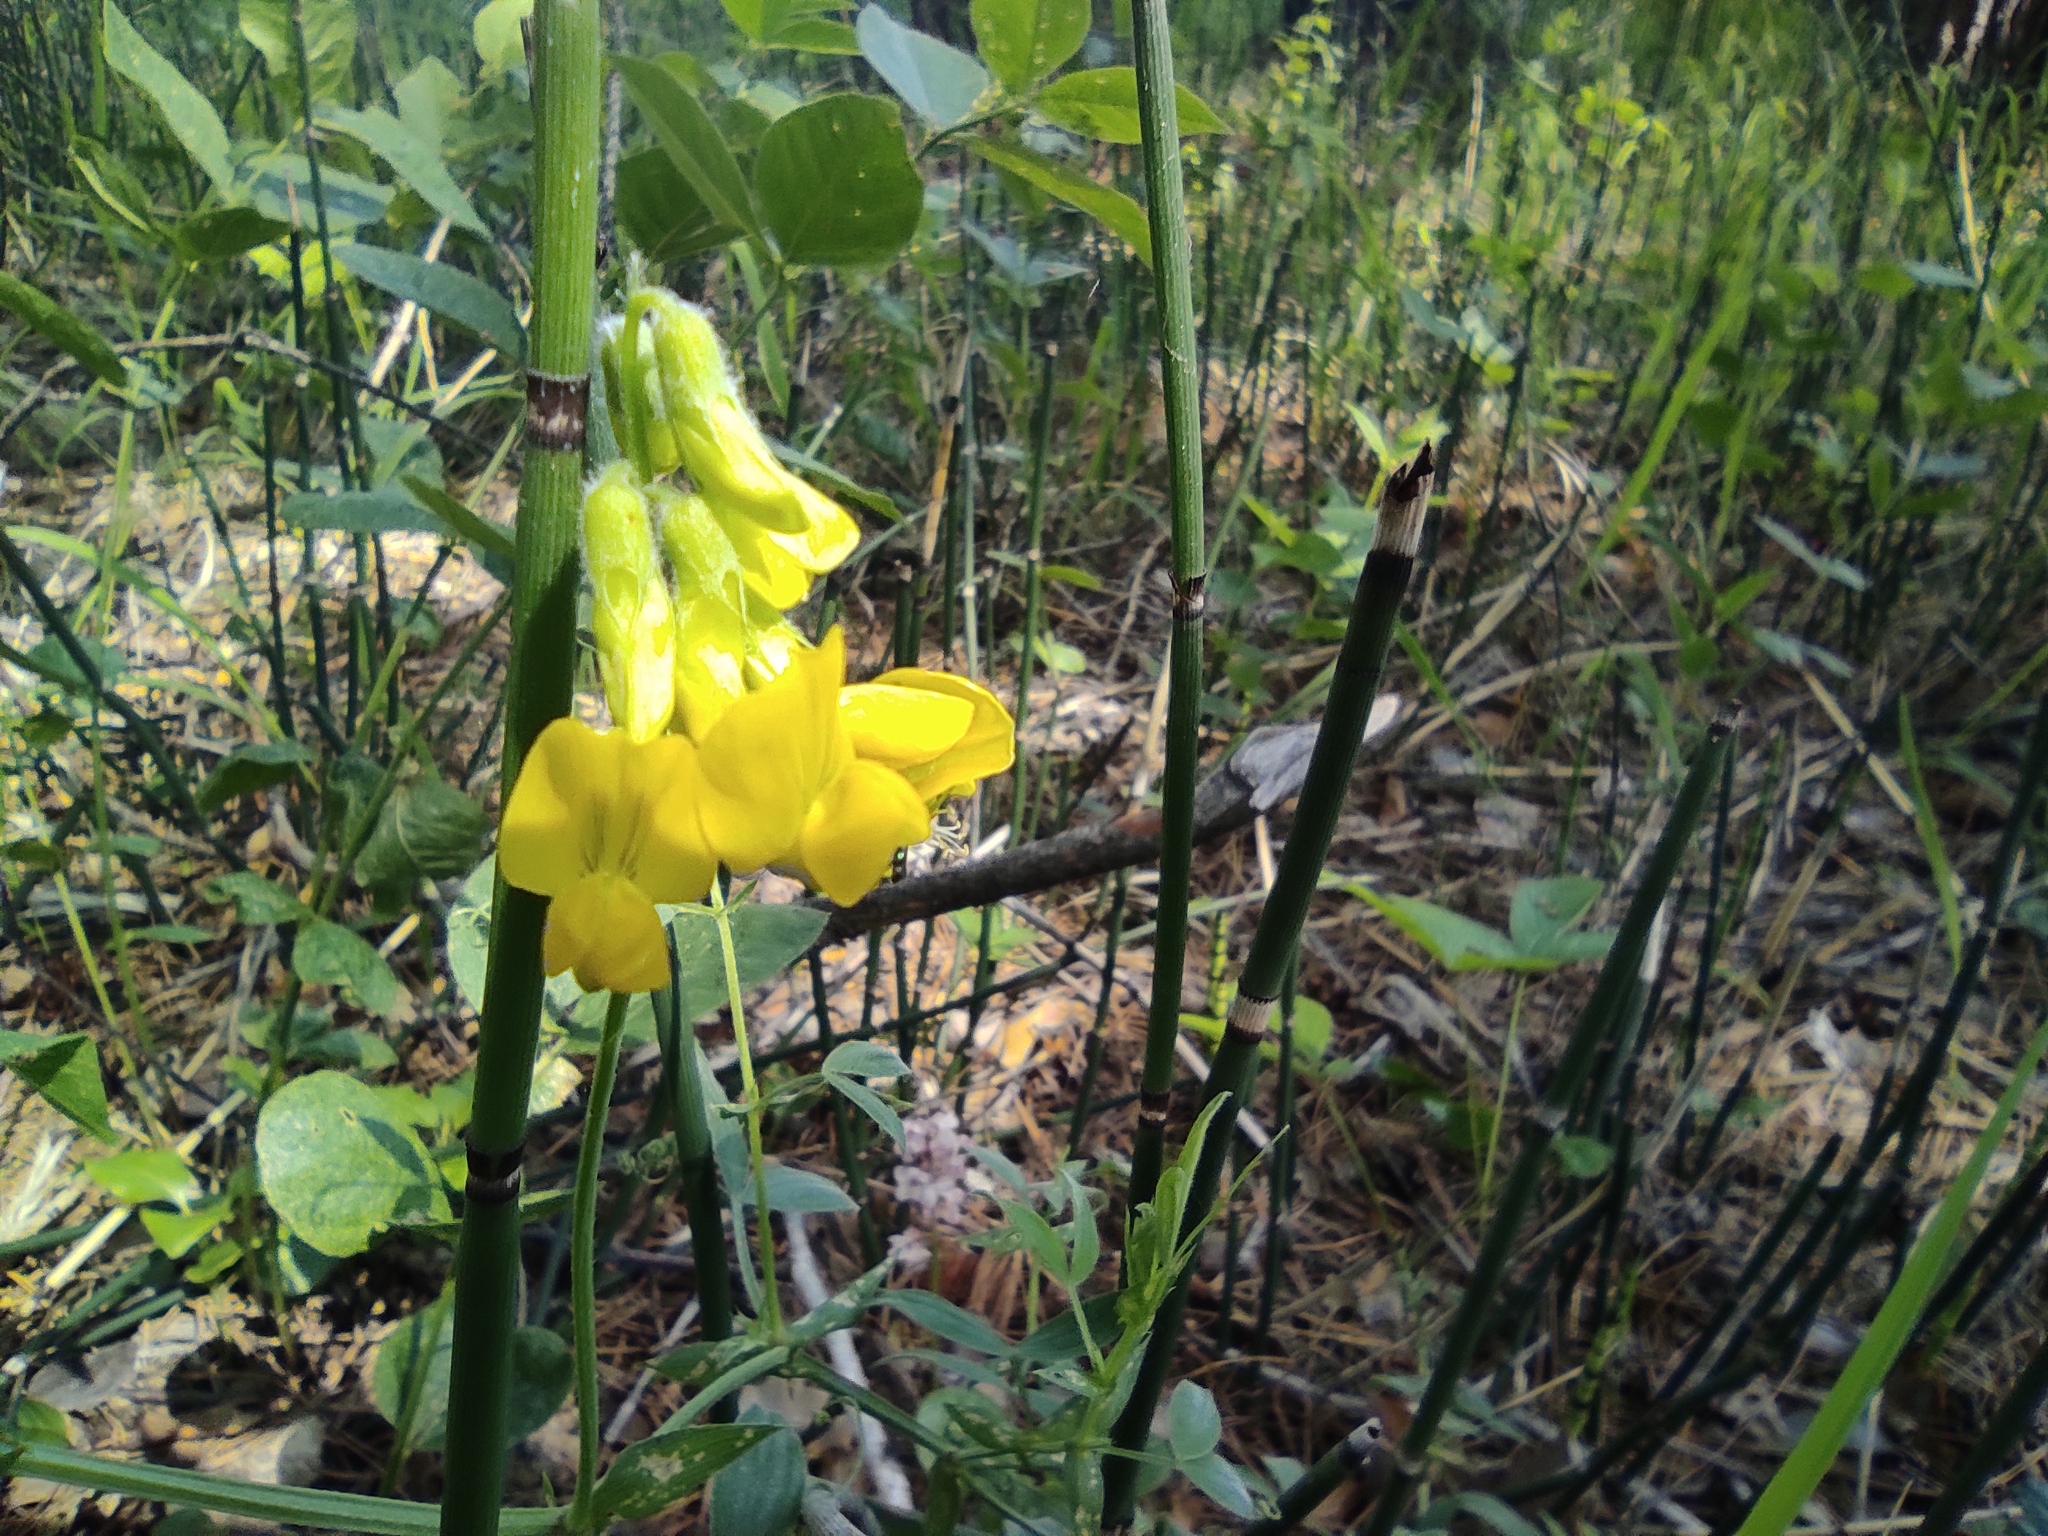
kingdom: Plantae
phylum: Tracheophyta
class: Magnoliopsida
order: Fabales
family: Fabaceae
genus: Lathyrus
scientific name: Lathyrus pratensis
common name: Meadow vetchling
